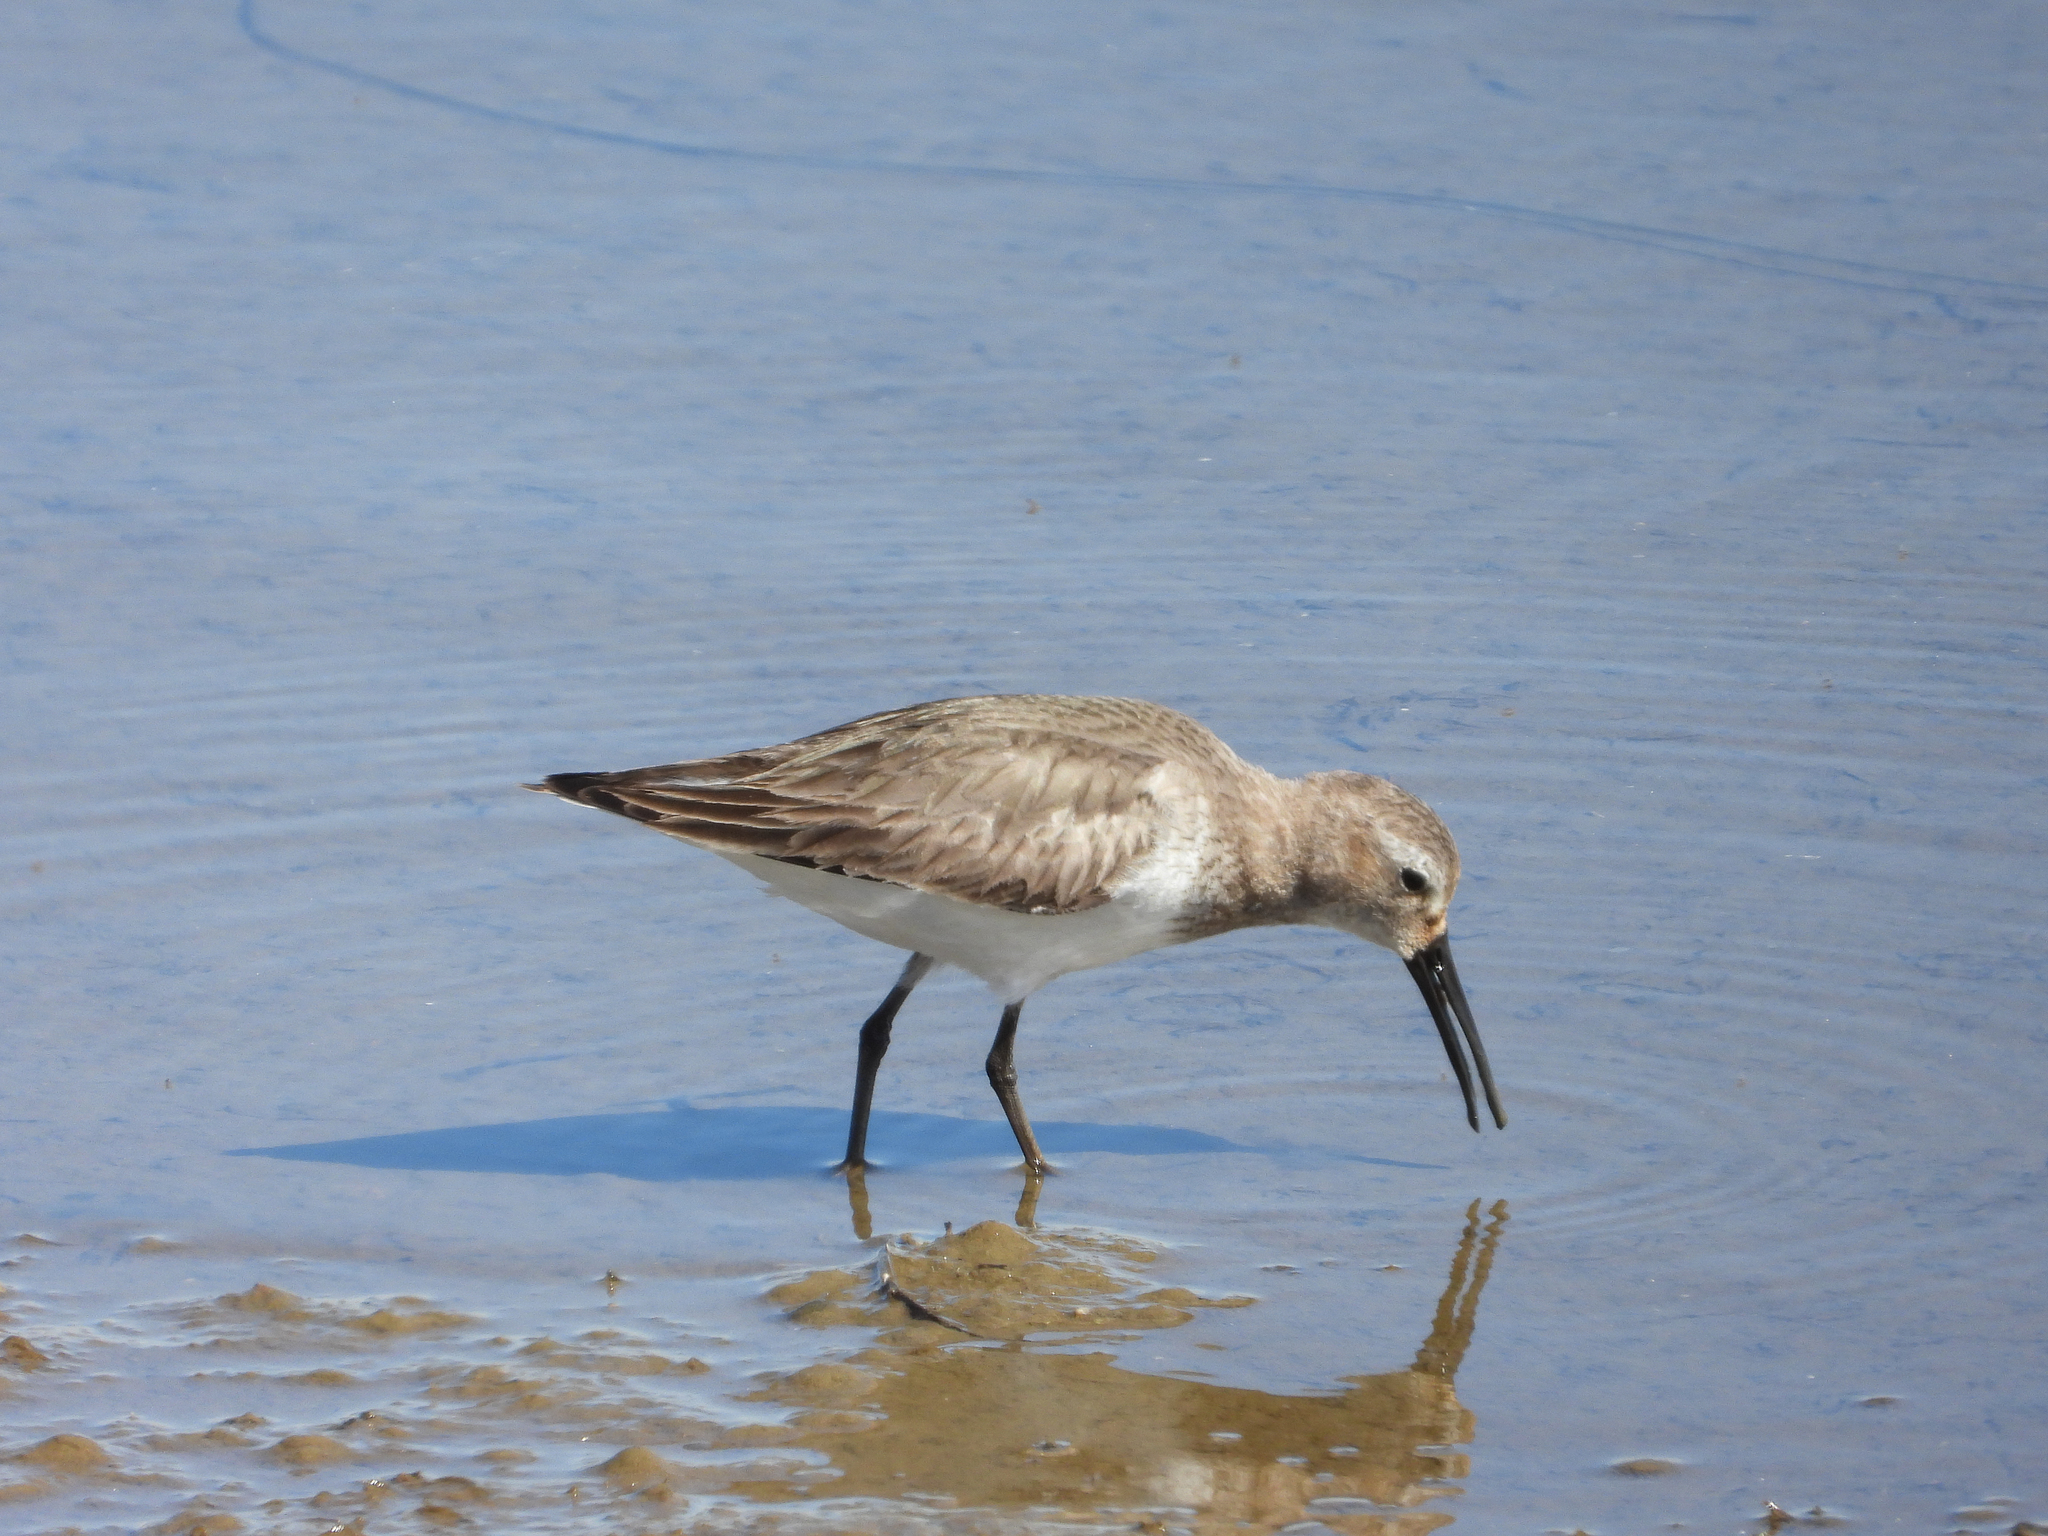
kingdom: Animalia
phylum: Chordata
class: Aves
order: Charadriiformes
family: Scolopacidae
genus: Calidris
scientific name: Calidris alpina
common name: Dunlin
